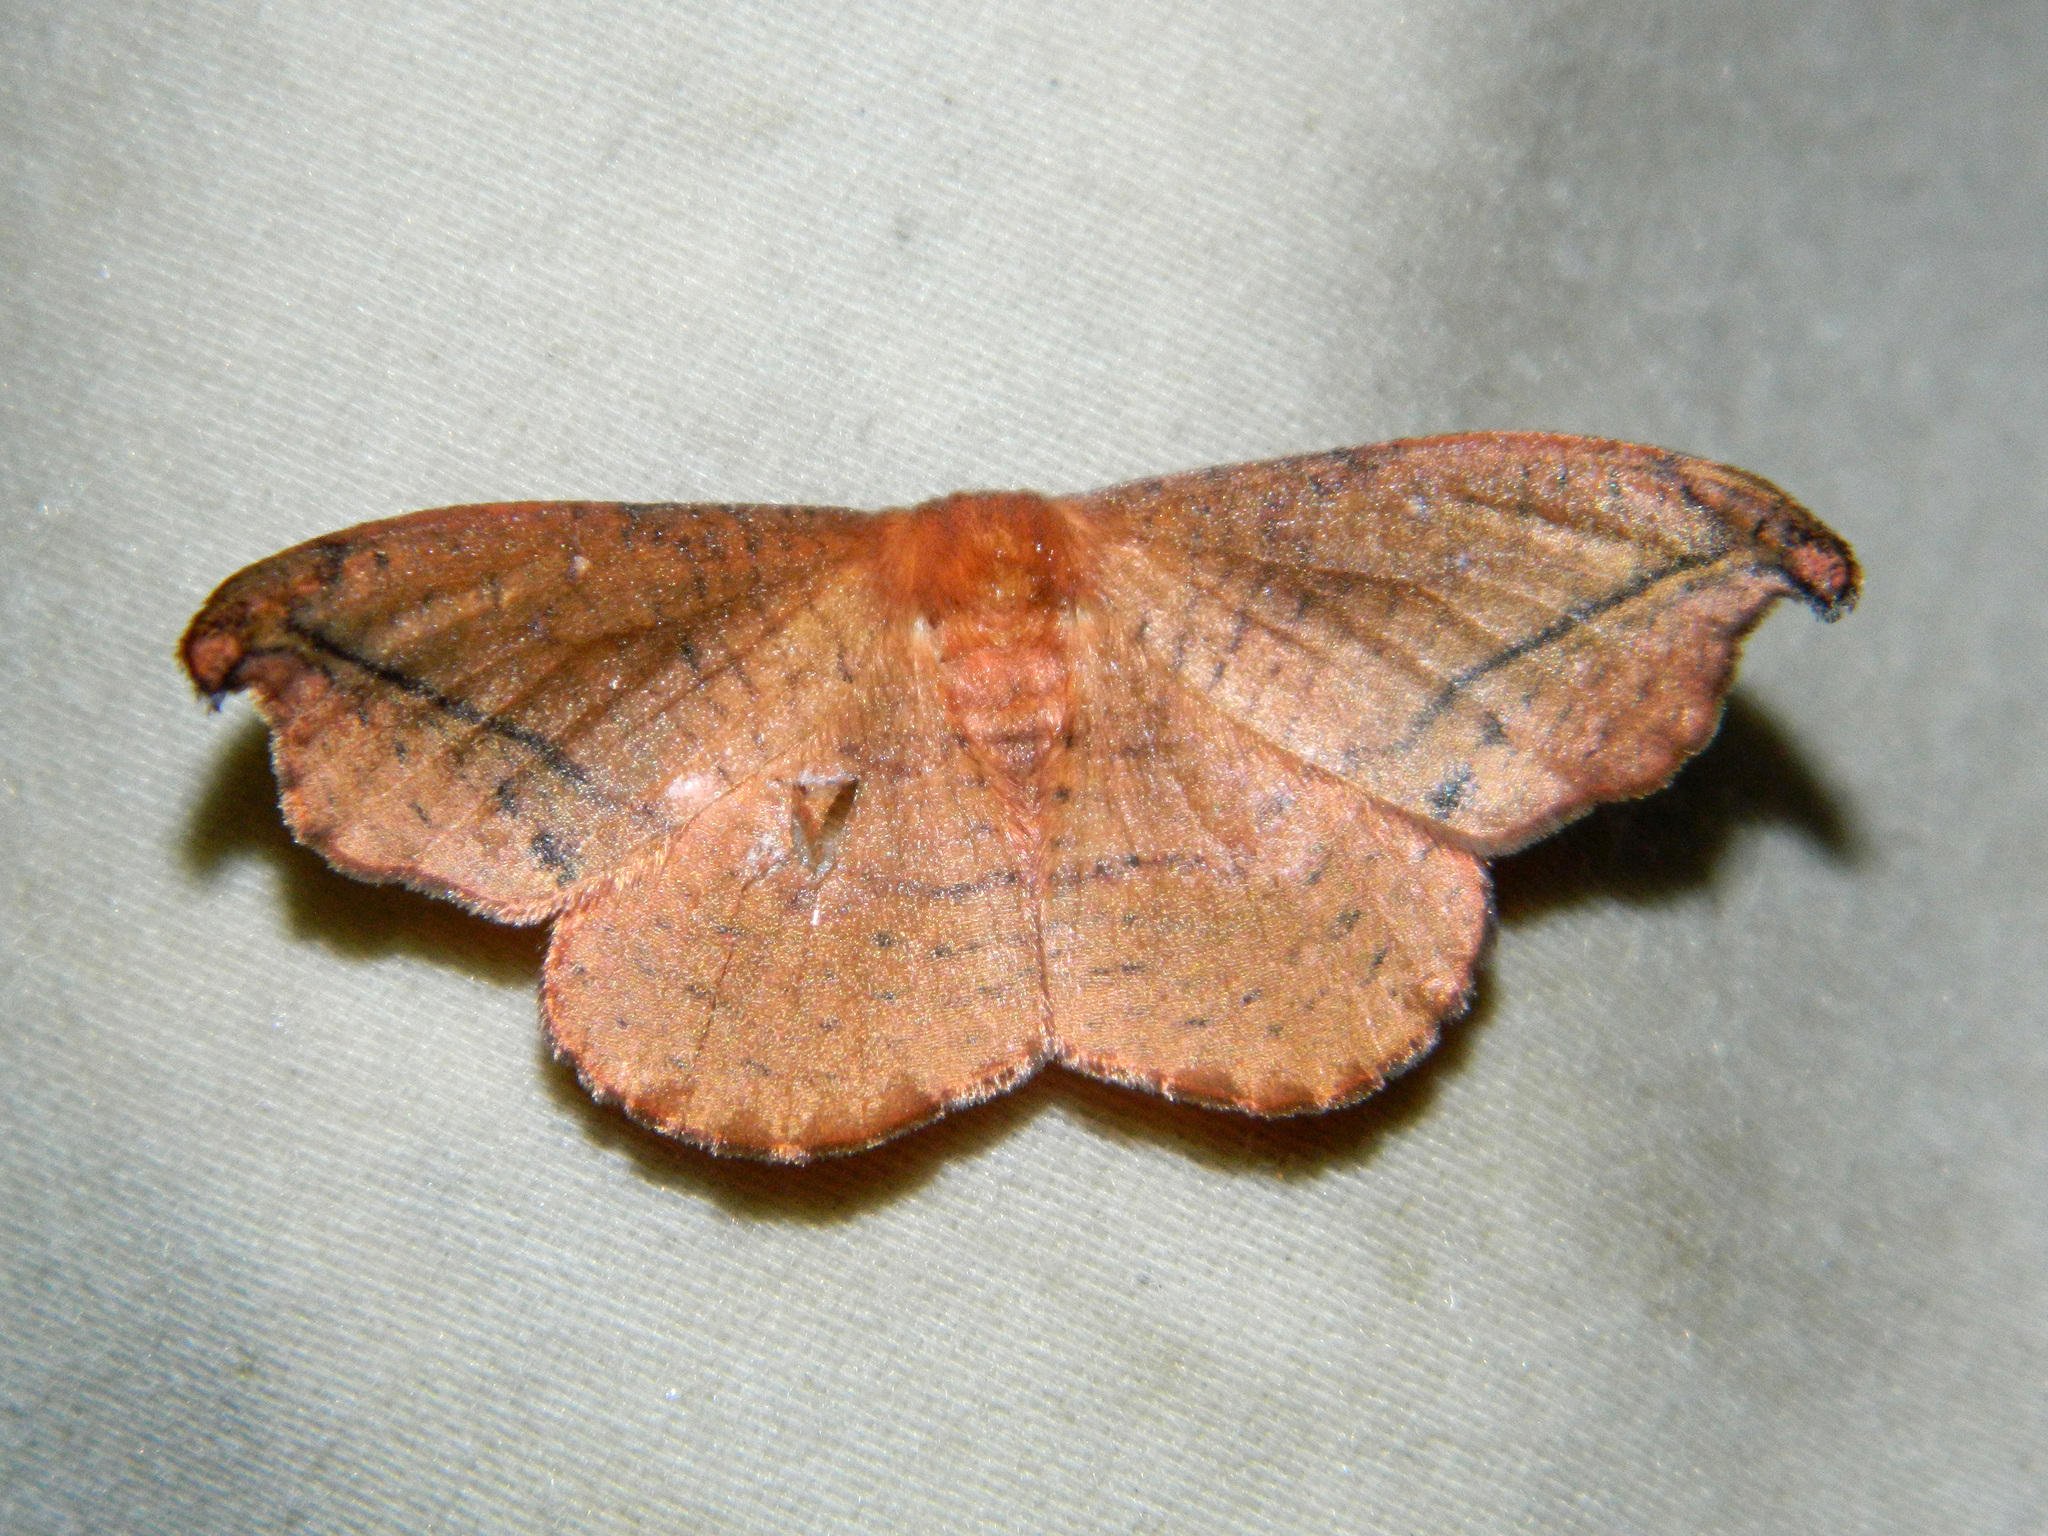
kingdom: Animalia
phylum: Arthropoda
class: Insecta
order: Lepidoptera
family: Drepanidae
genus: Oreta
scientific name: Oreta rosea
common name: Rose hooktip
